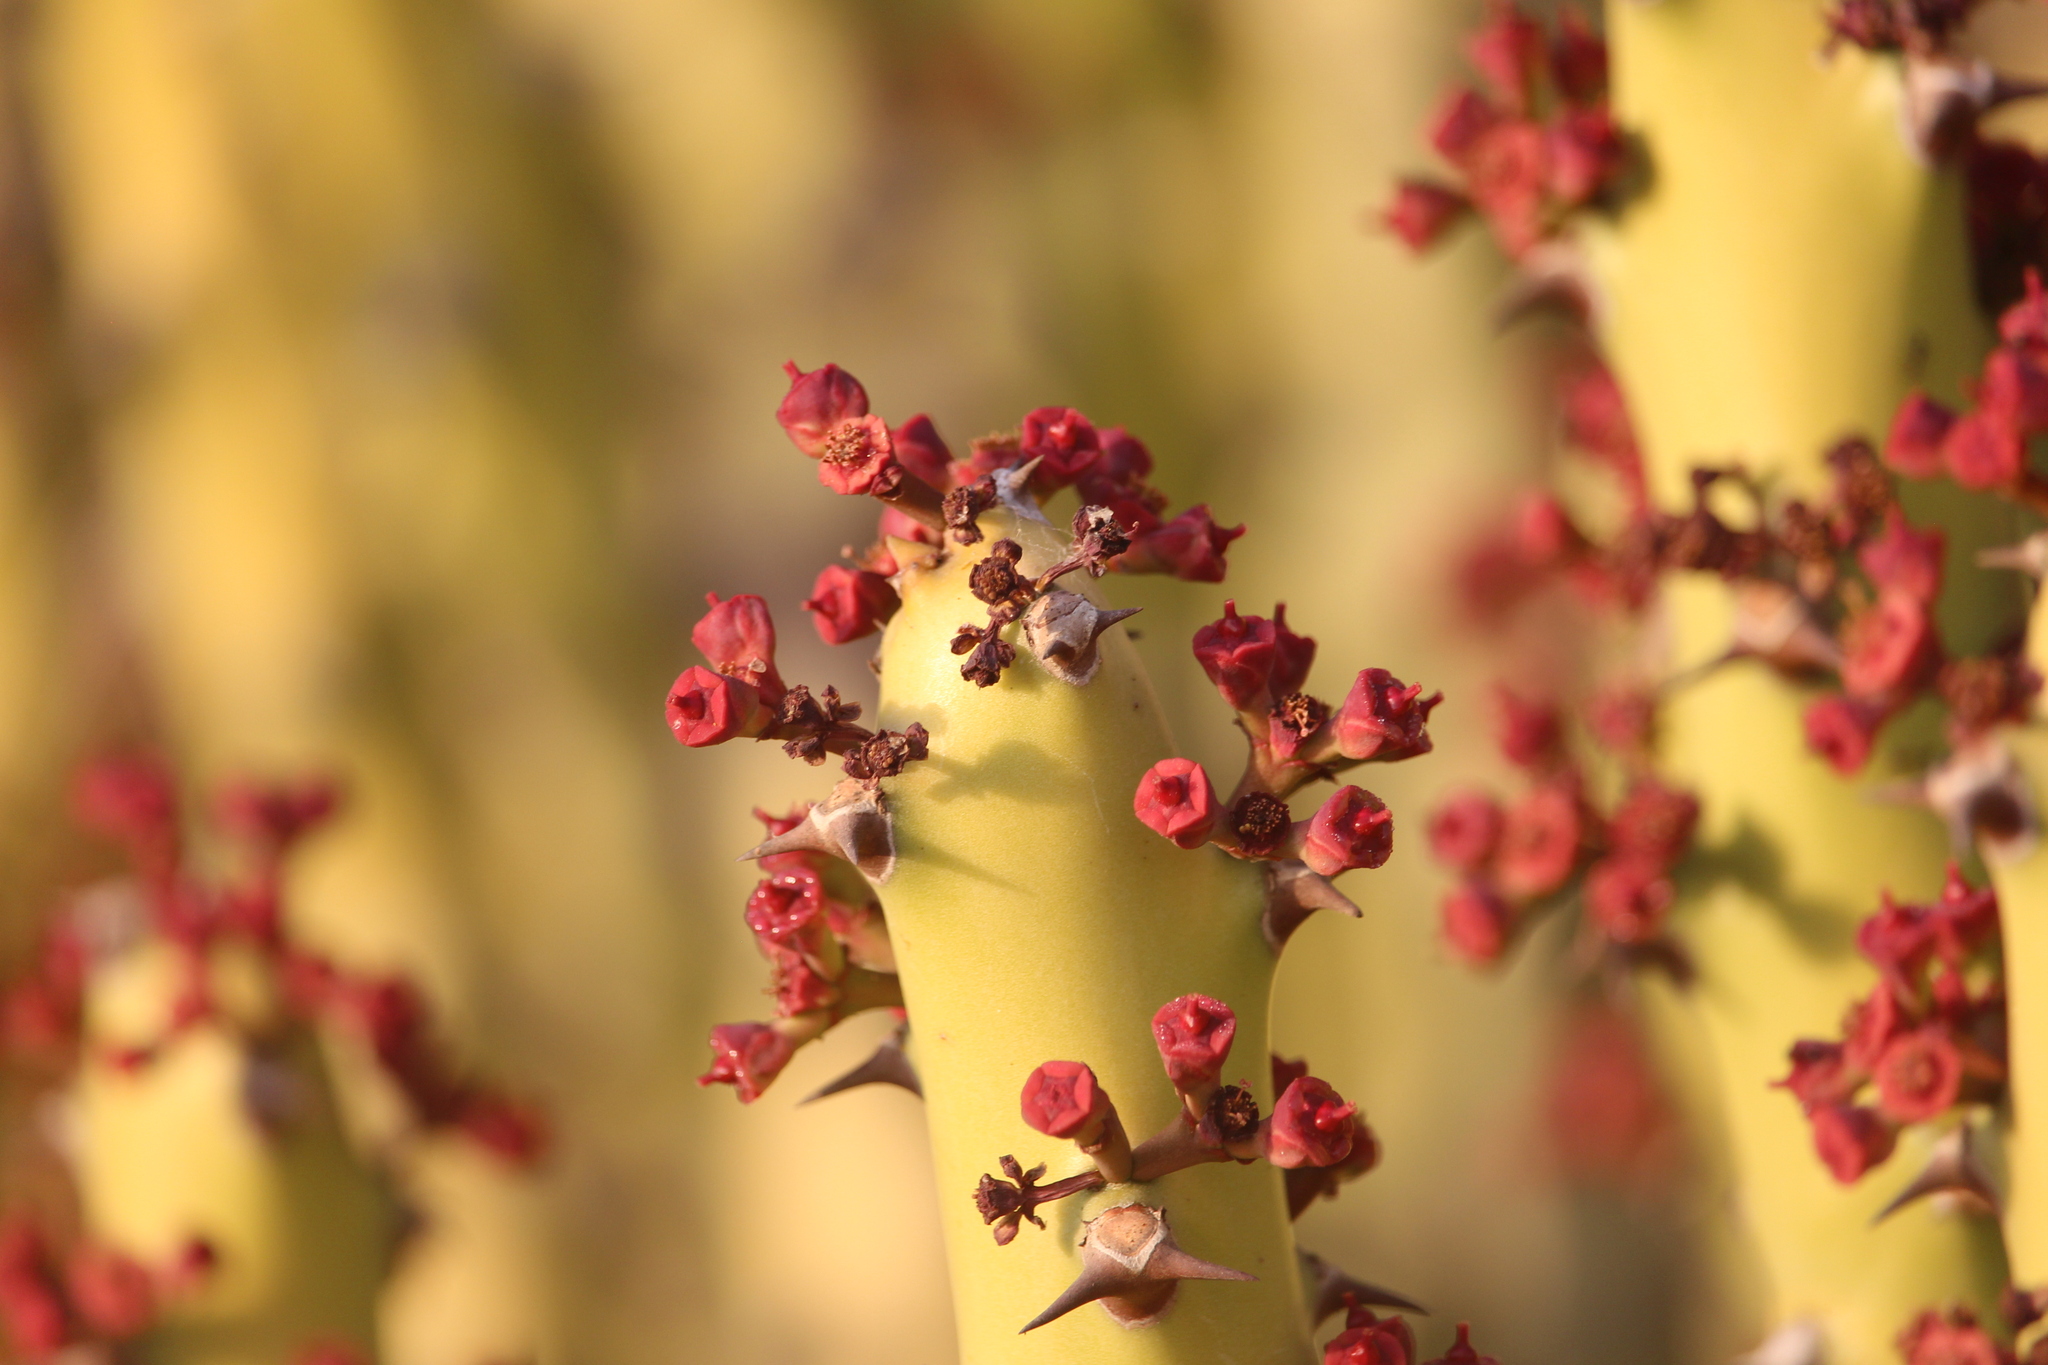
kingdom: Plantae
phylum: Tracheophyta
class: Magnoliopsida
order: Malpighiales
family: Euphorbiaceae
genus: Euphorbia
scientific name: Euphorbia caducifolia
